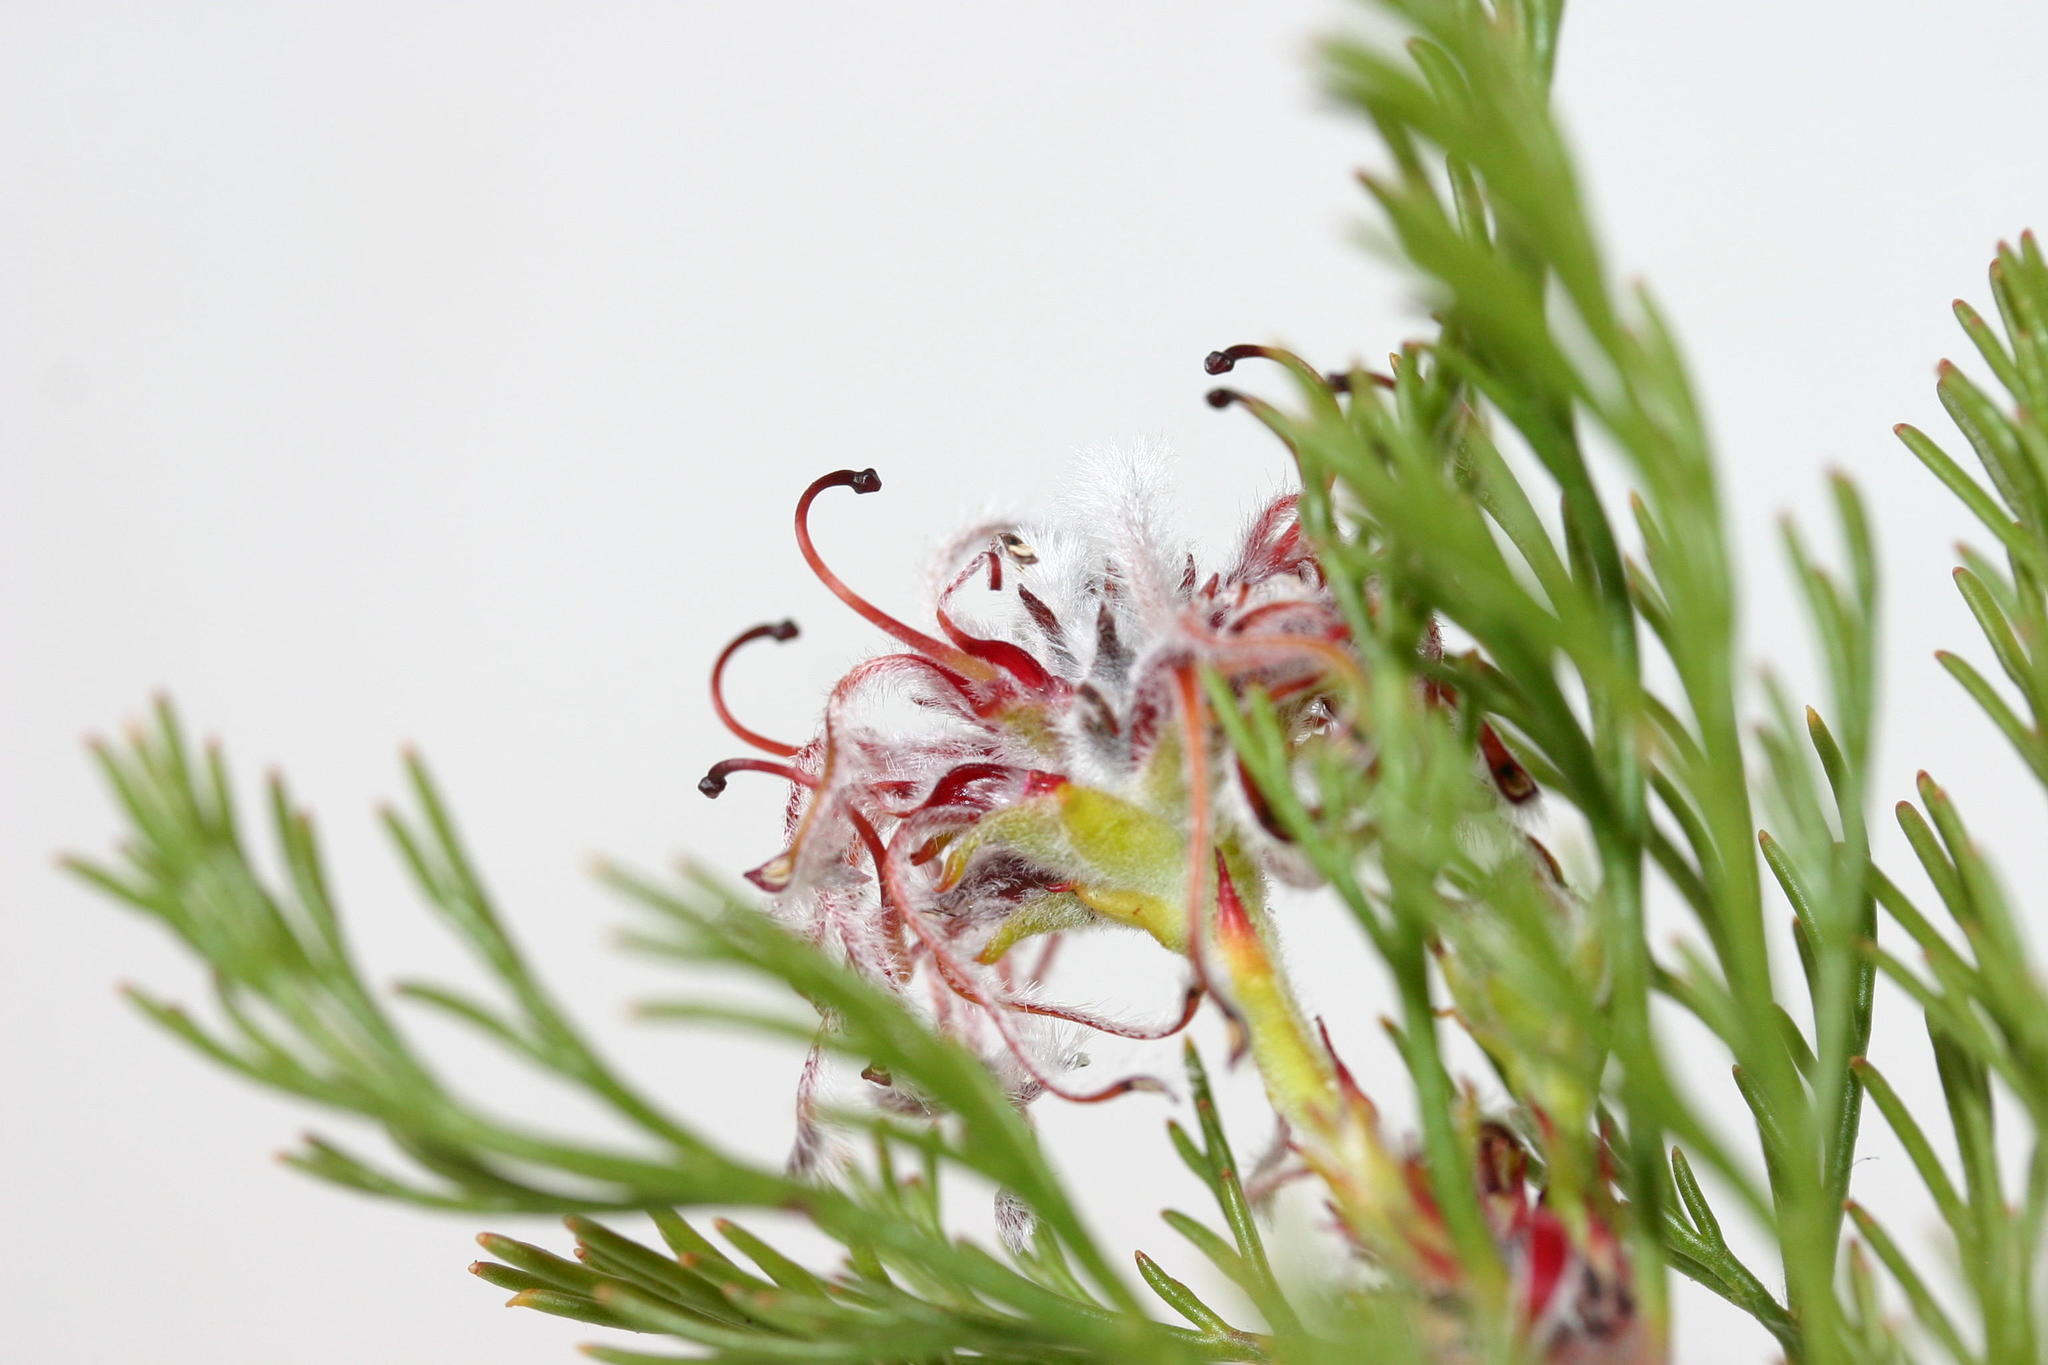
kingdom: Plantae
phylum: Tracheophyta
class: Magnoliopsida
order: Proteales
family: Proteaceae
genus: Serruria
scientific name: Serruria balanocephala
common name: Acorn spiderhead
